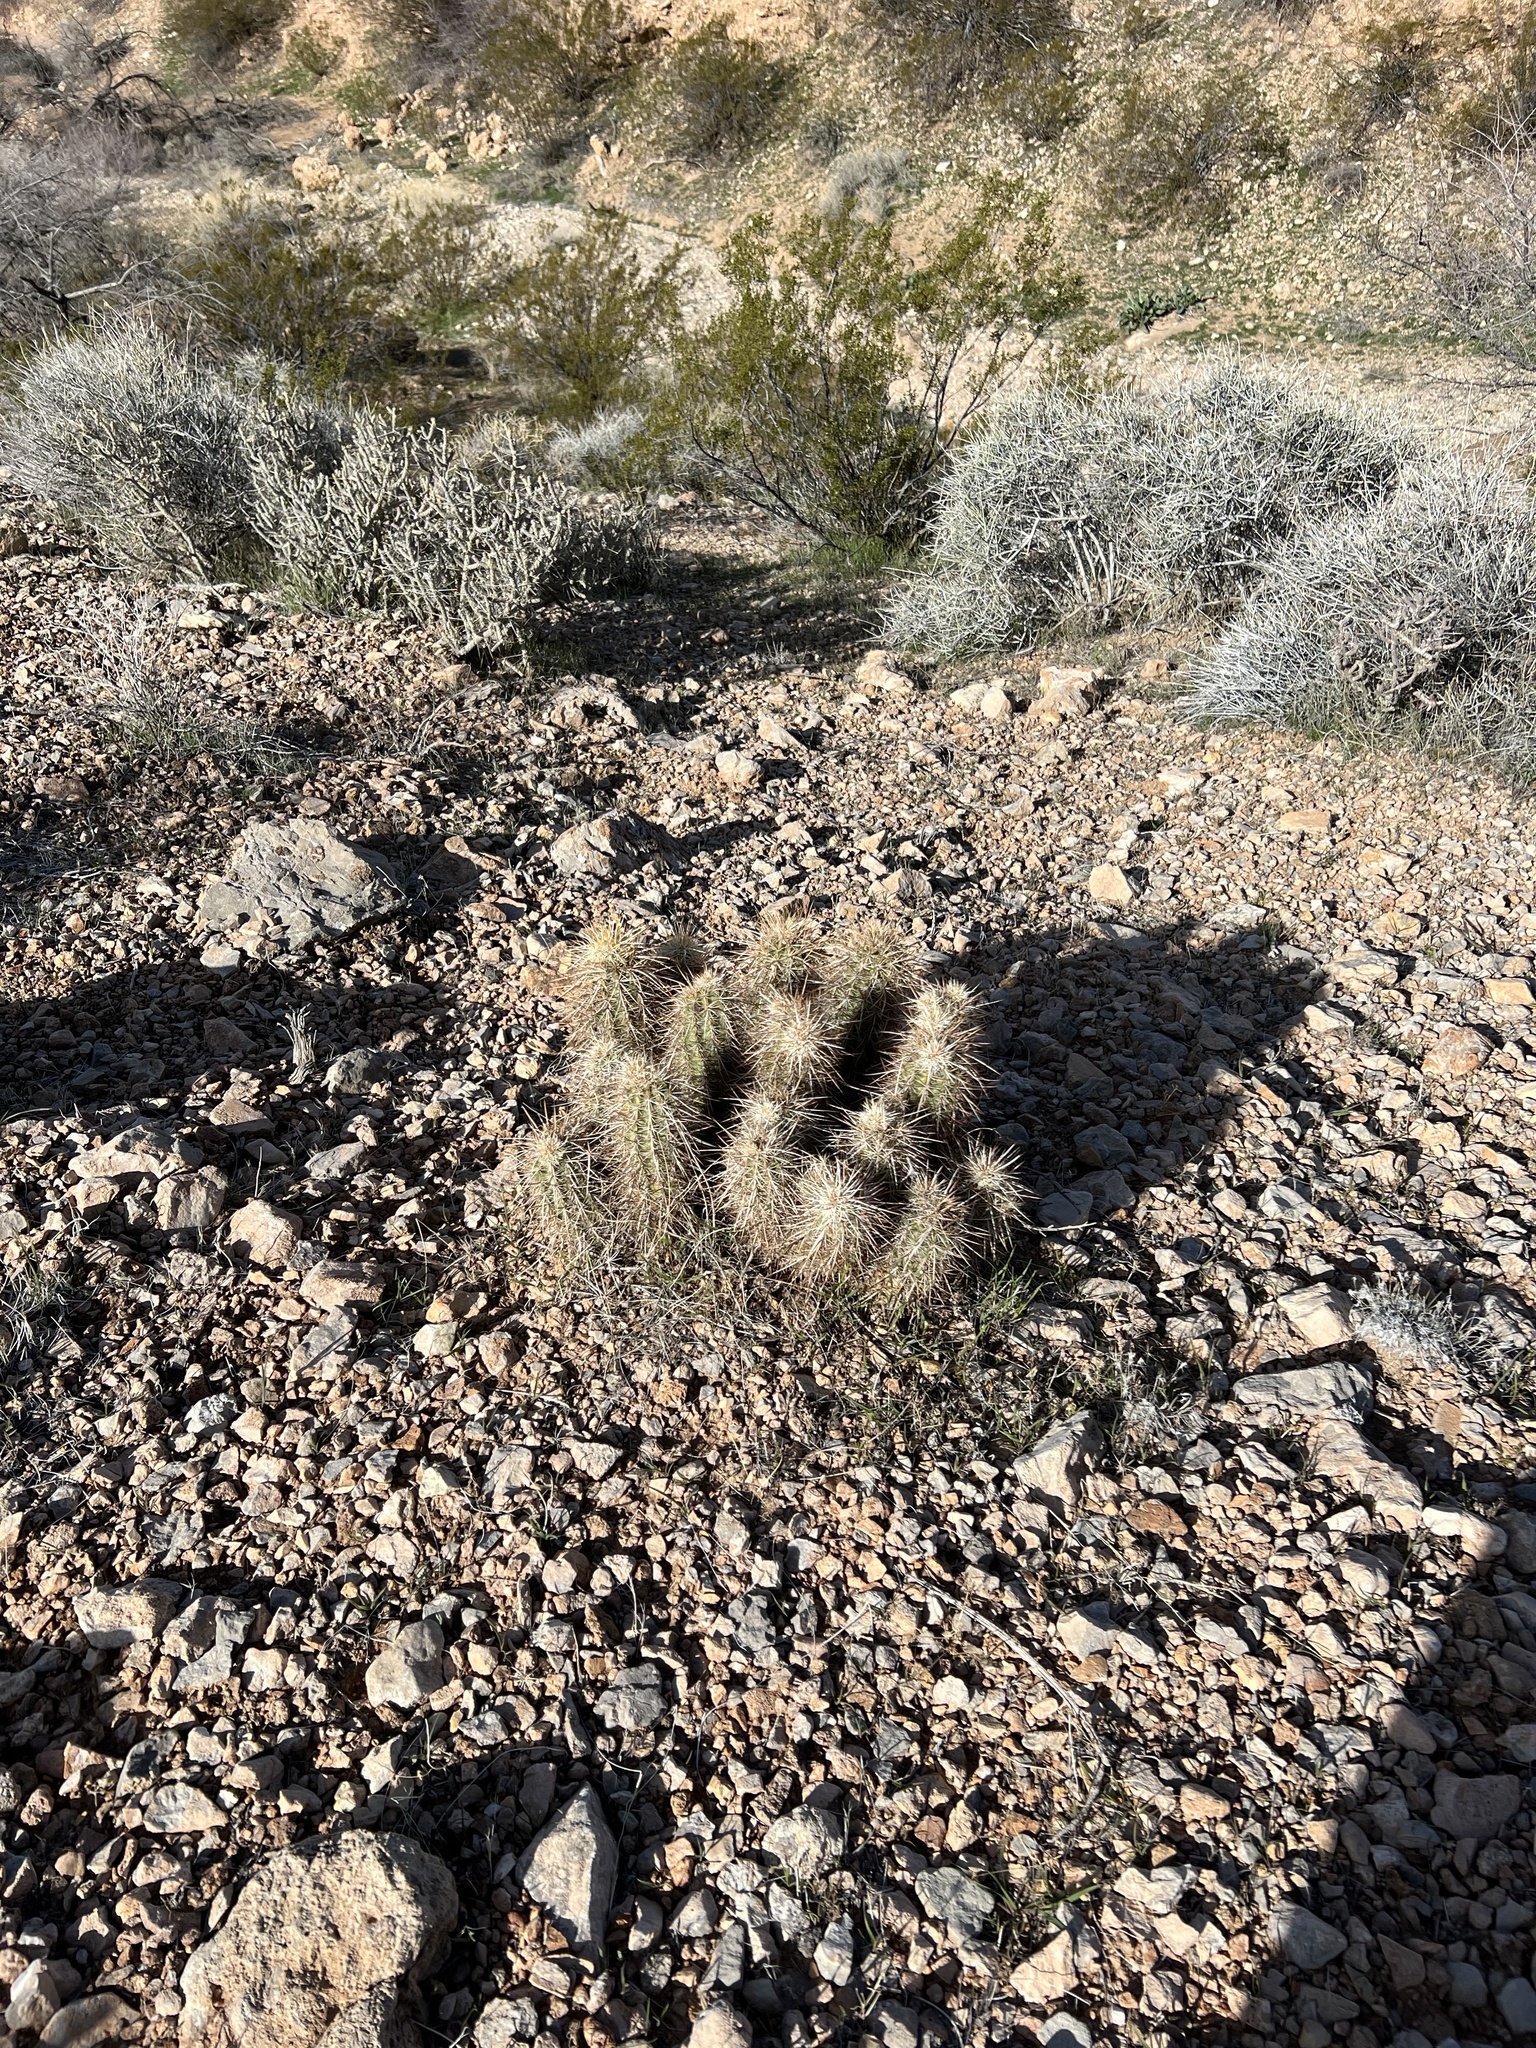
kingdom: Plantae
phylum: Tracheophyta
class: Magnoliopsida
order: Caryophyllales
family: Cactaceae
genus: Echinocereus
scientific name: Echinocereus engelmannii
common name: Engelmann's hedgehog cactus
